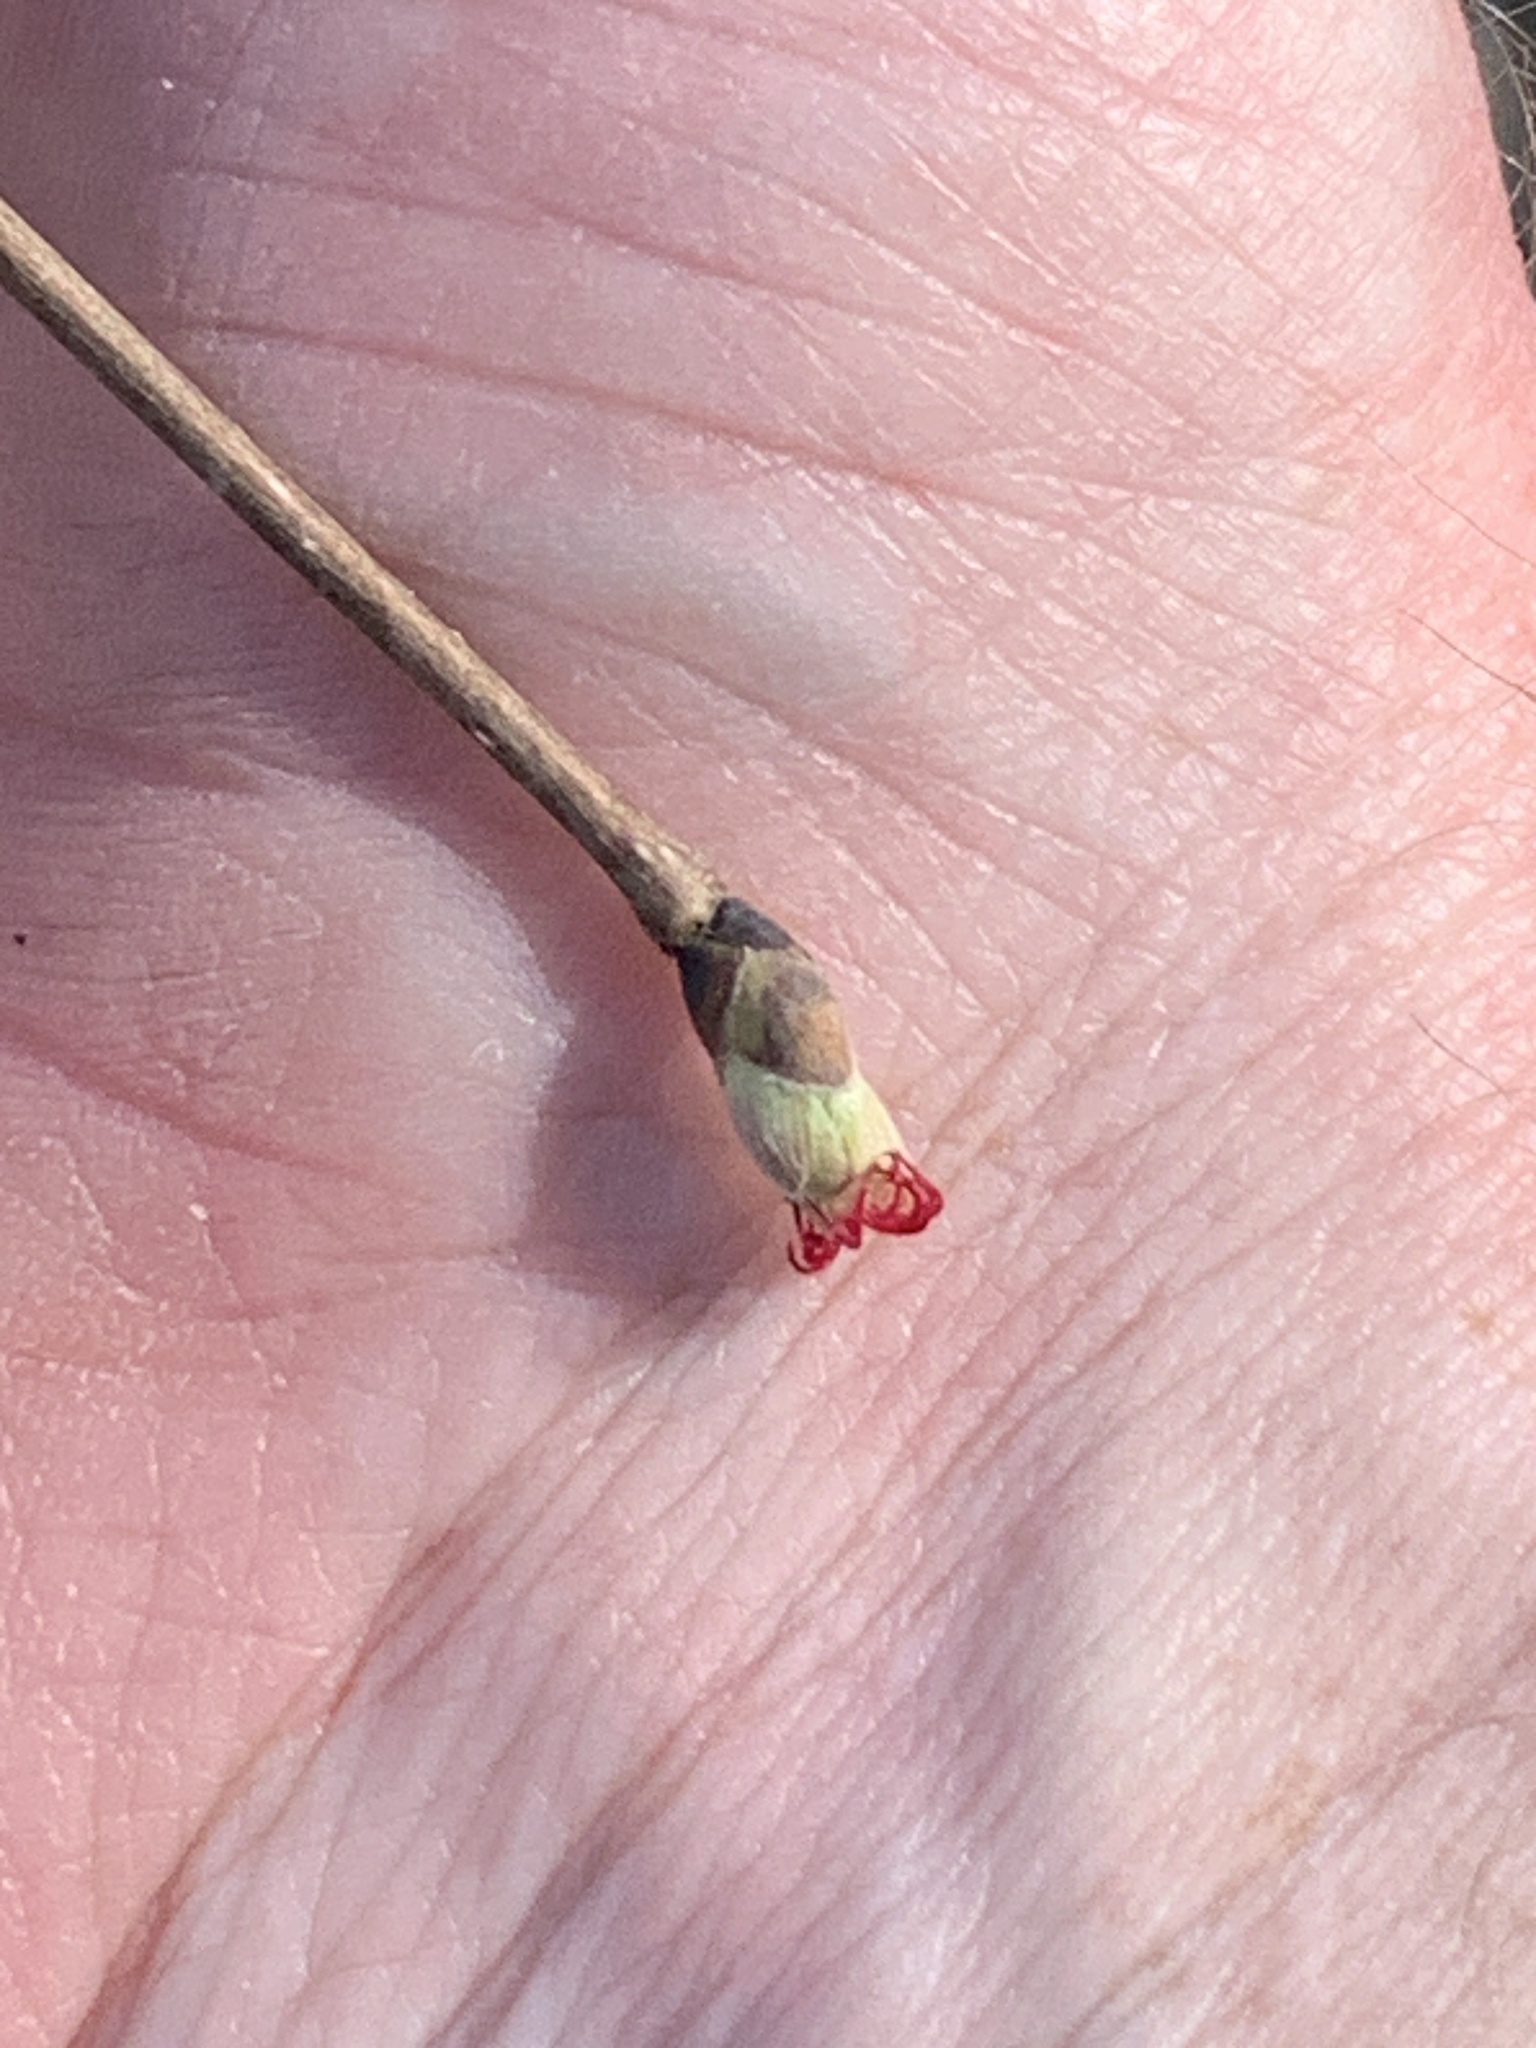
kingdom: Plantae
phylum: Tracheophyta
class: Magnoliopsida
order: Fagales
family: Betulaceae
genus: Corylus
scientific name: Corylus cornuta
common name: Beaked hazel
